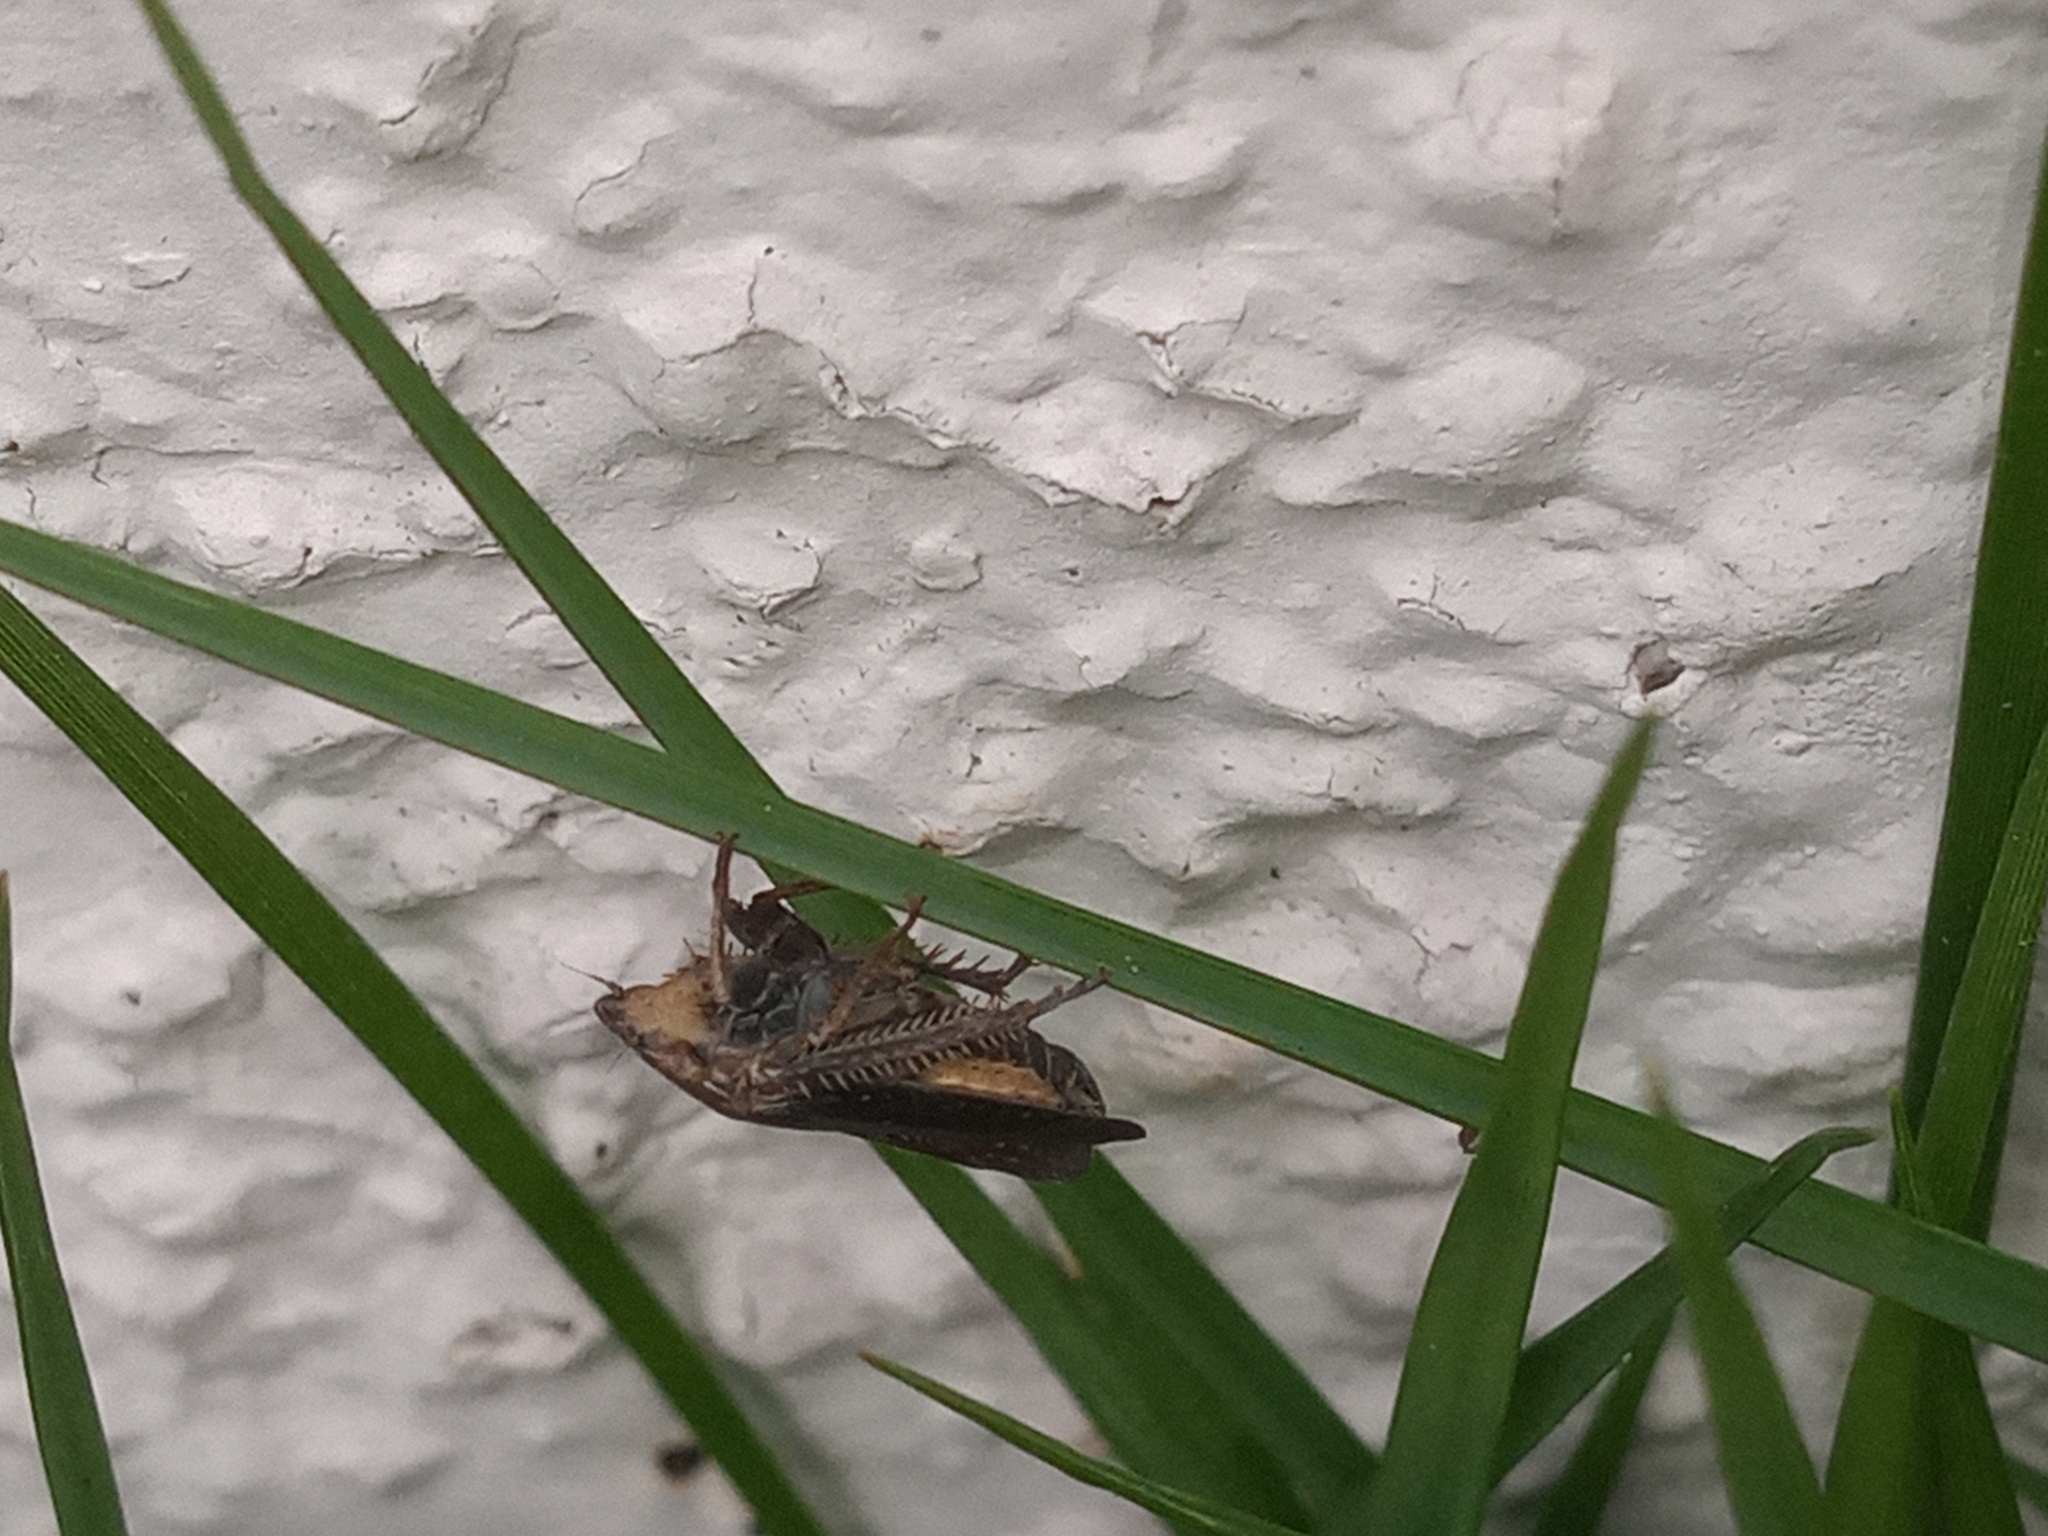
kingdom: Animalia
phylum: Arthropoda
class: Insecta
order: Hemiptera
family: Cicadellidae
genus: Negosiana
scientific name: Negosiana dualis
